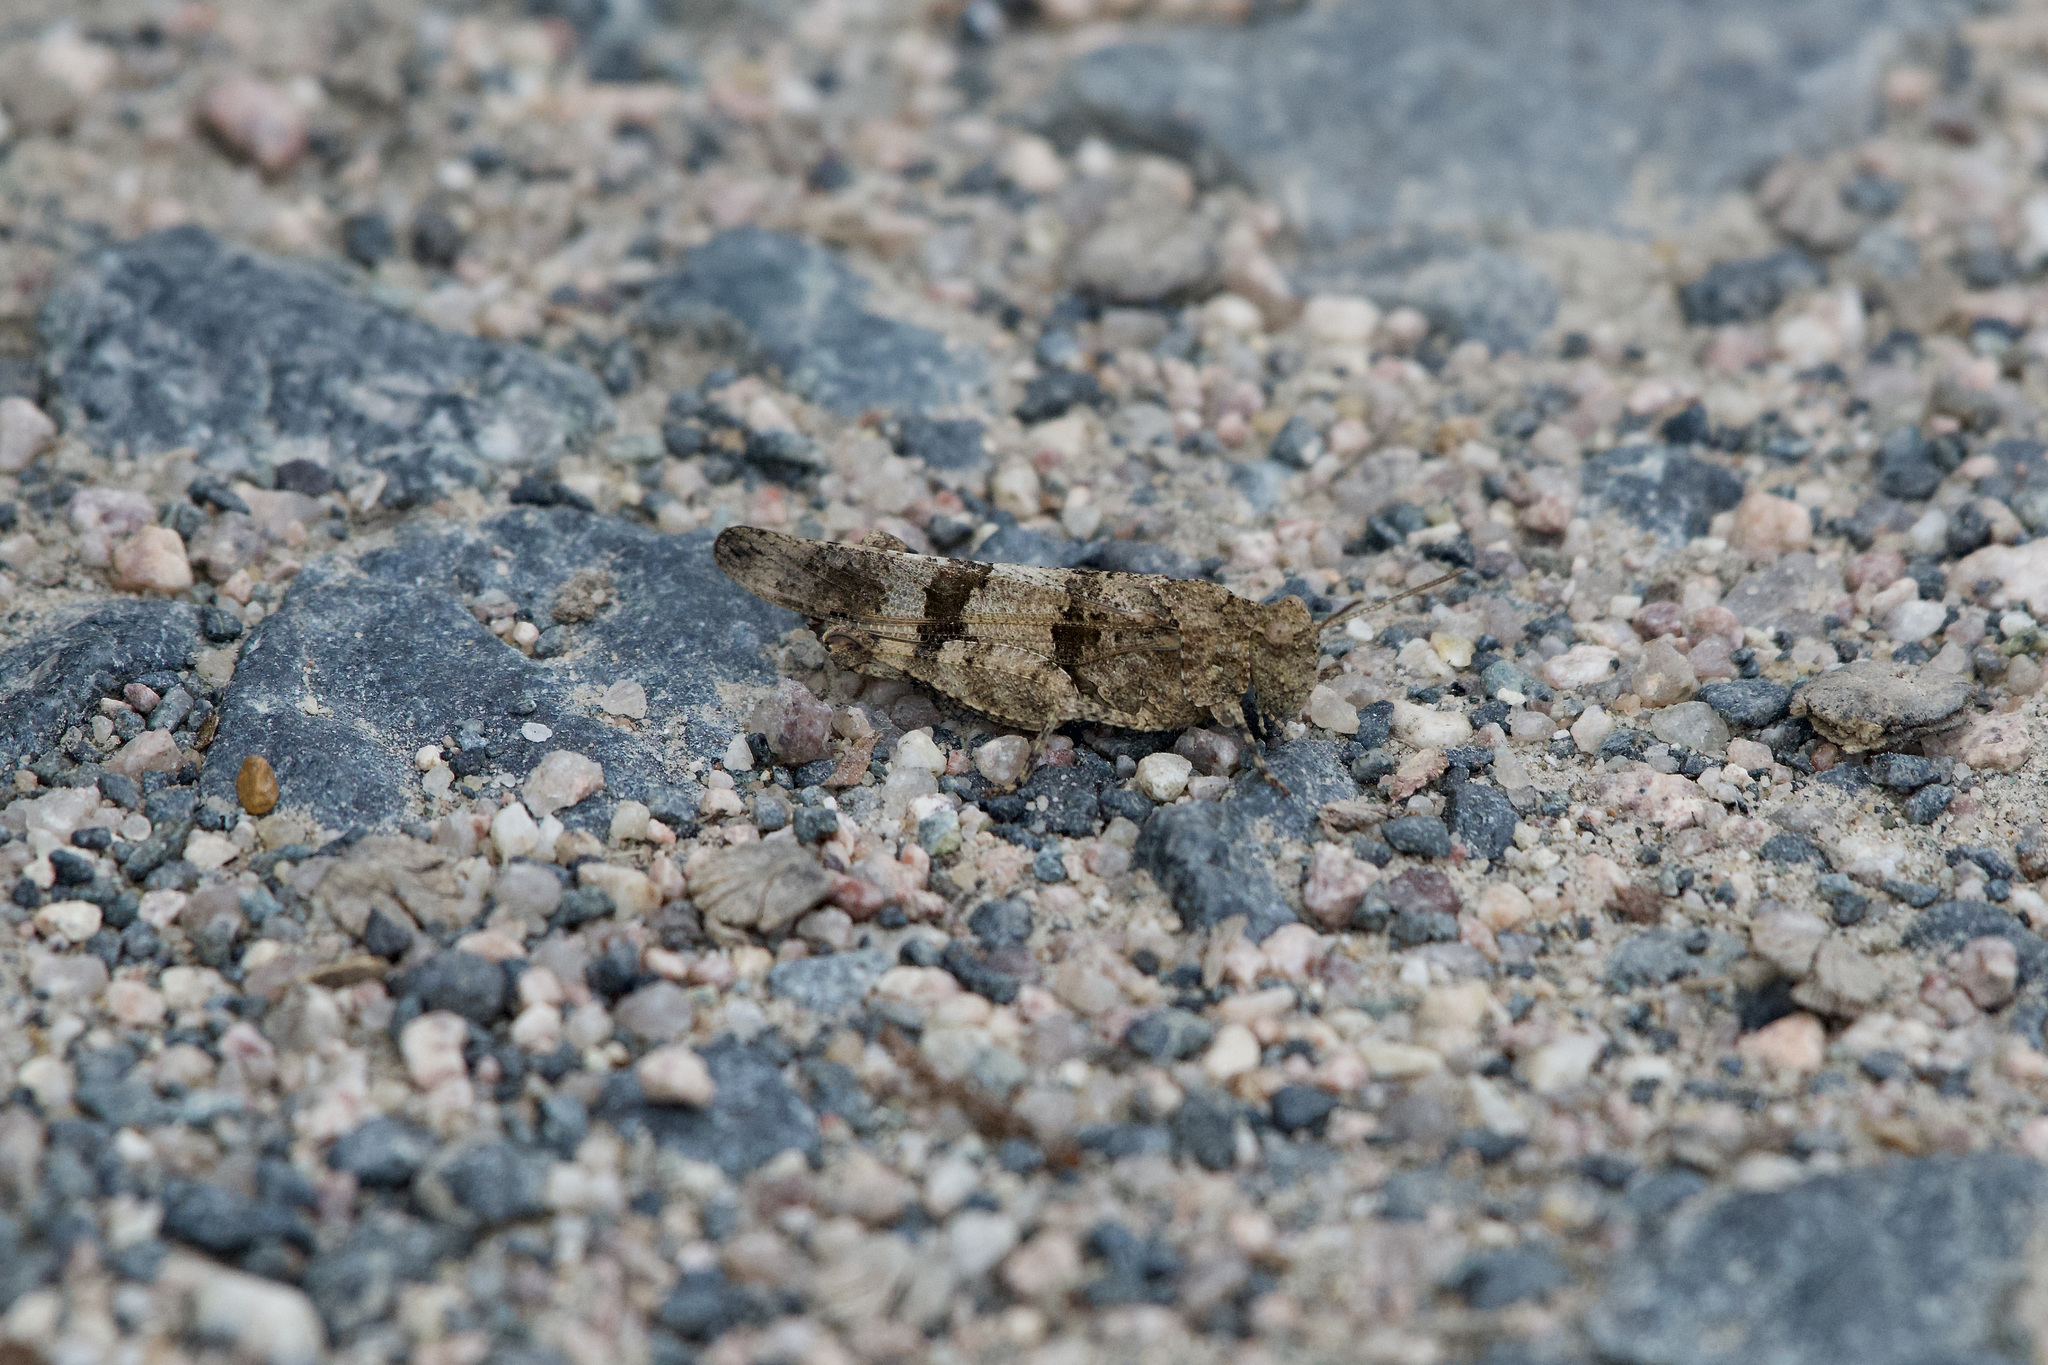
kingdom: Animalia
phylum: Arthropoda
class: Insecta
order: Orthoptera
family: Acrididae
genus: Oedipoda
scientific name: Oedipoda caerulescens
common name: Blue-winged grasshopper
